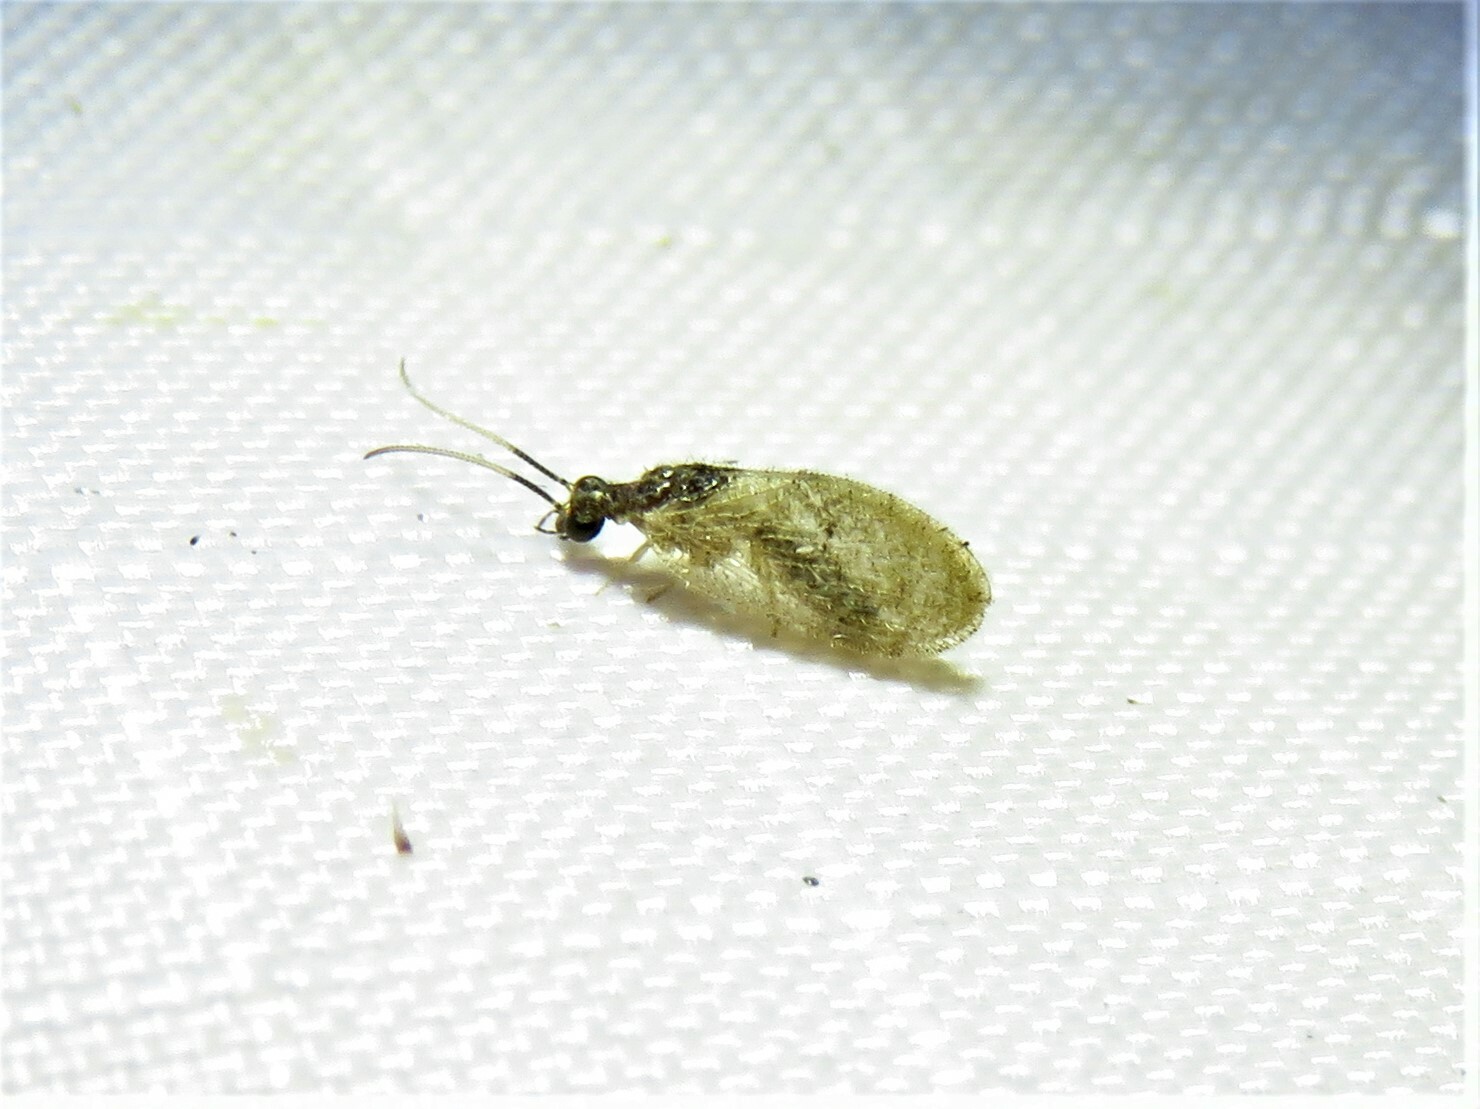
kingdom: Animalia
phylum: Arthropoda
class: Insecta
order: Neuroptera
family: Hemerobiidae
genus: Sympherobius
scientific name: Sympherobius barberi
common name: Brown lacewing
